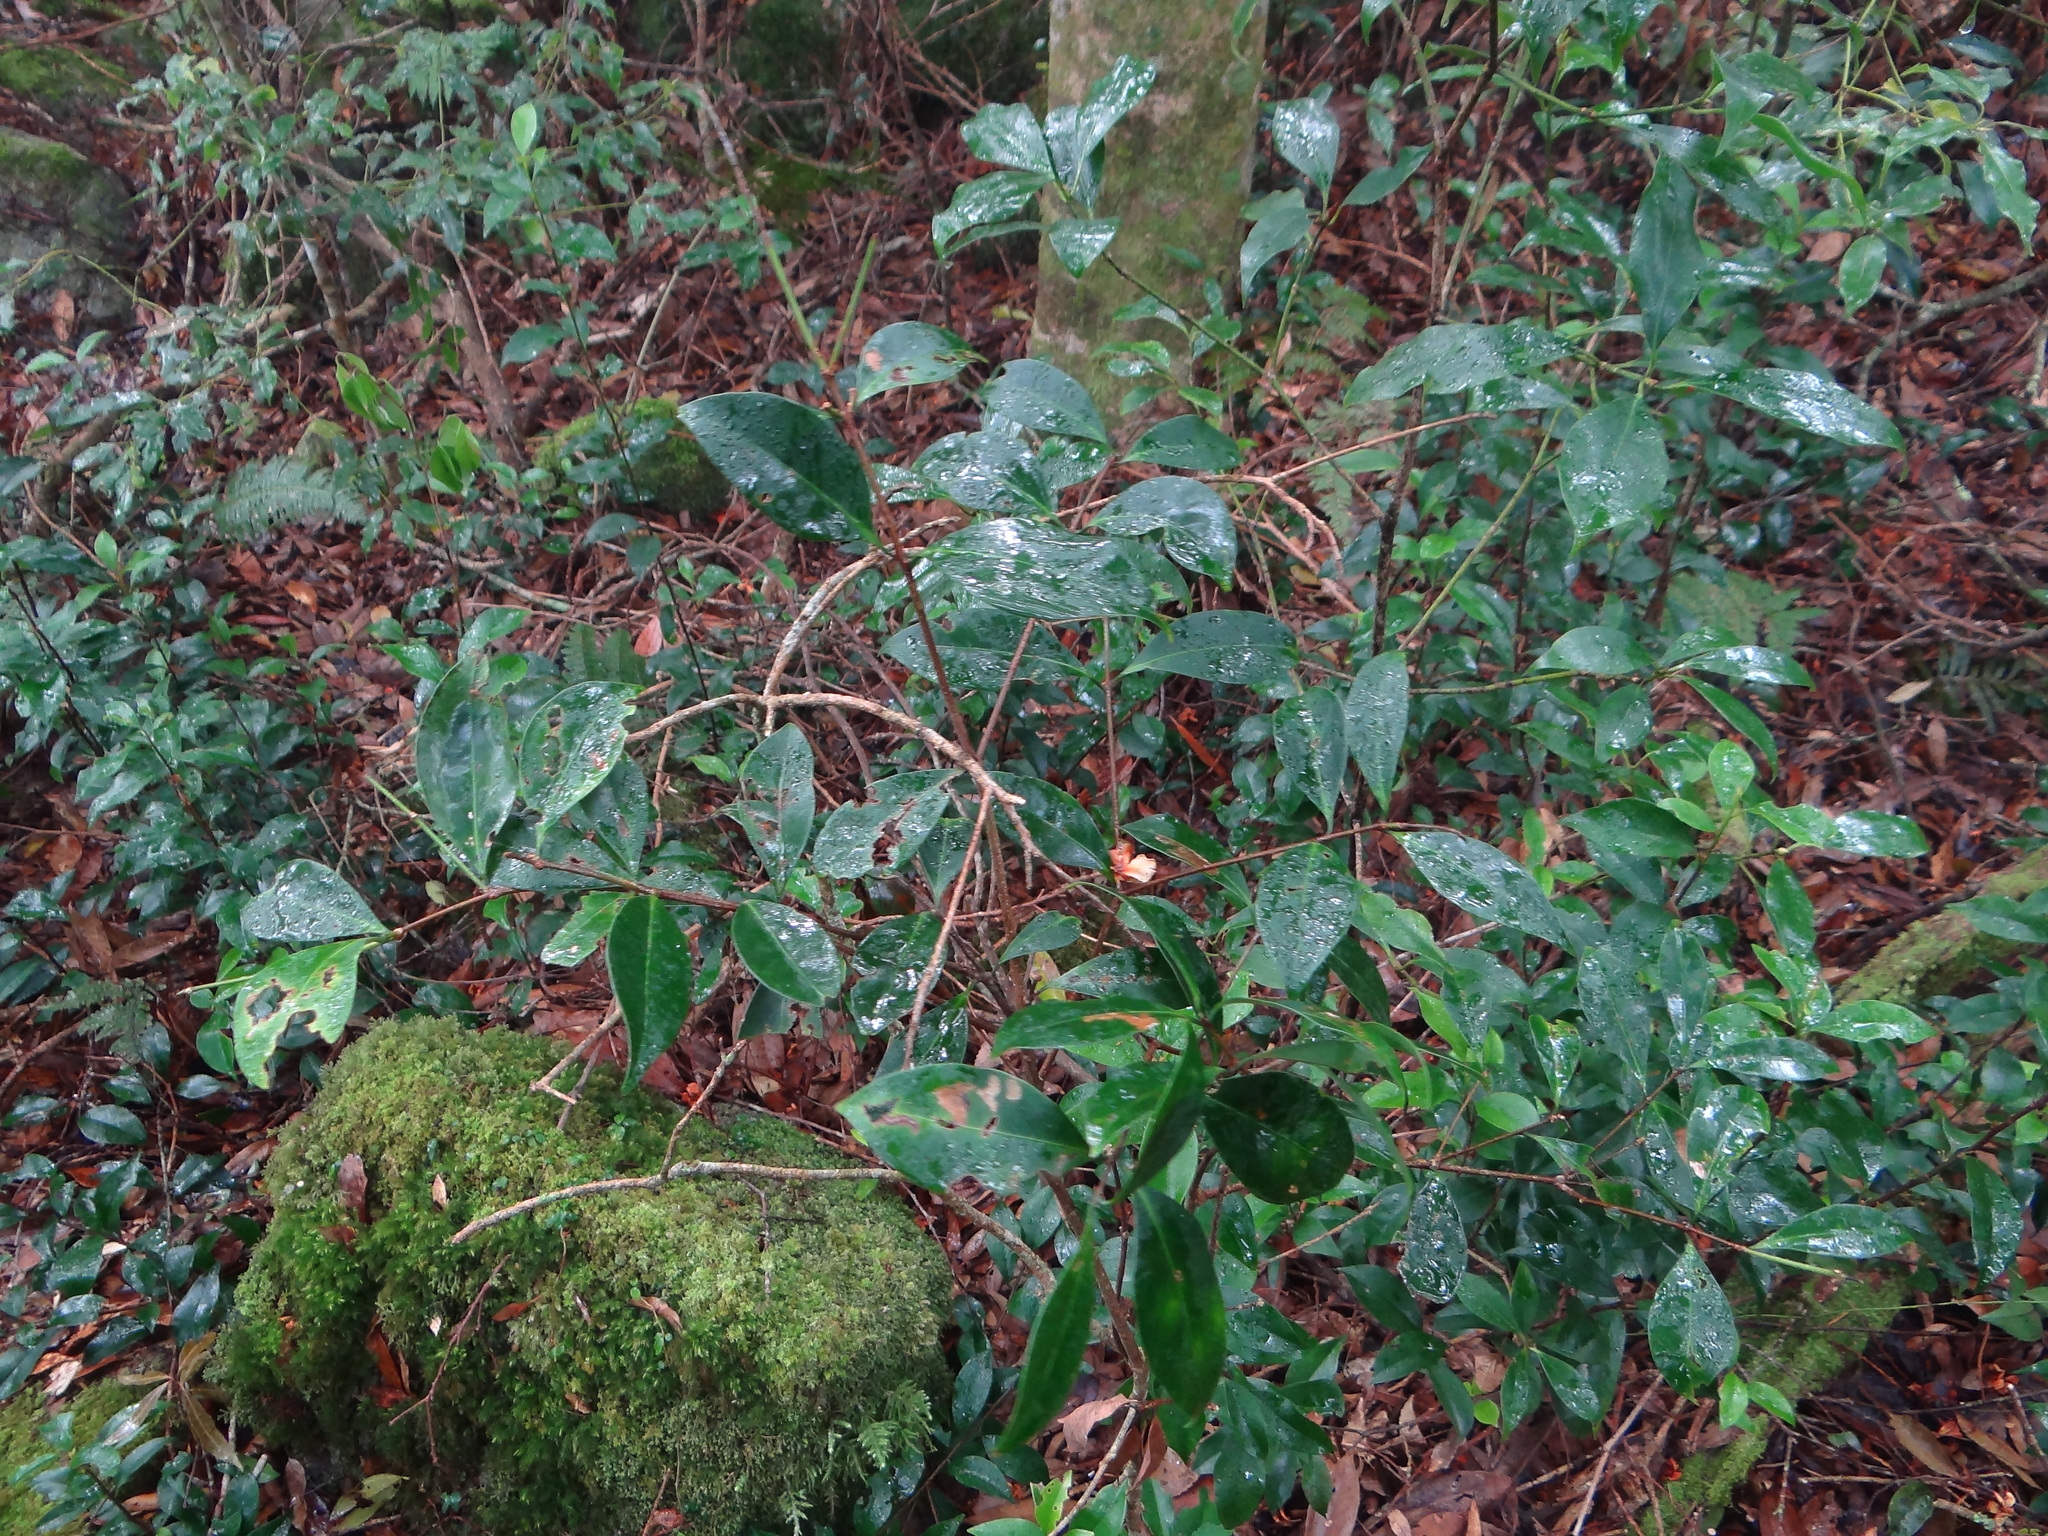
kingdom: Plantae
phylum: Tracheophyta
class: Magnoliopsida
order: Celastrales
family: Celastraceae
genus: Microtropis
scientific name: Microtropis yunnanensis
